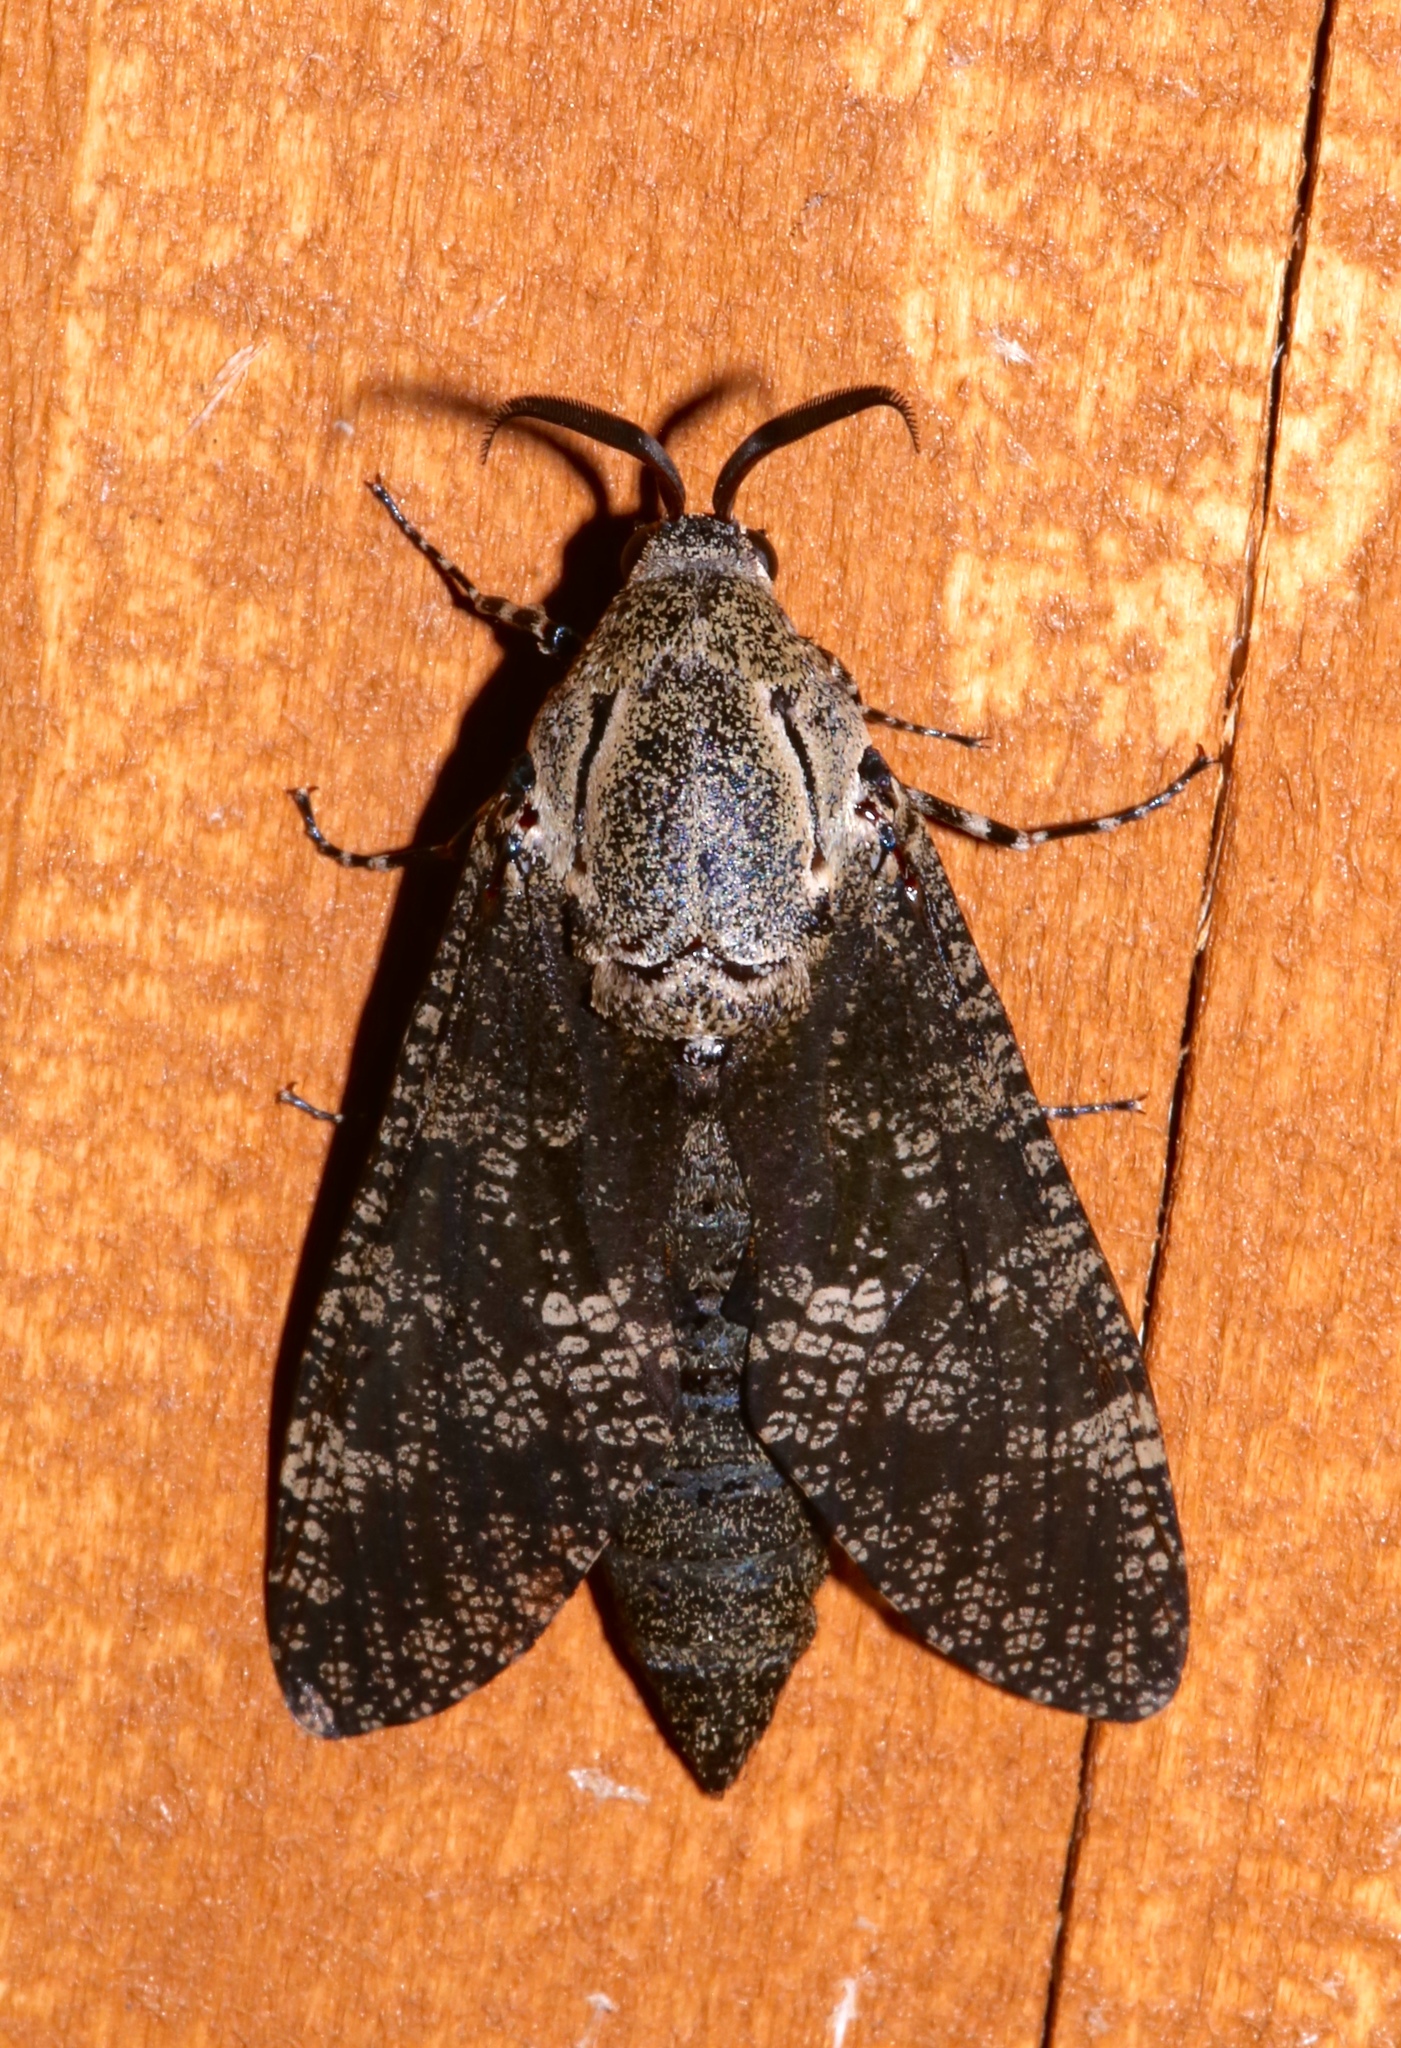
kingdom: Animalia
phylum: Arthropoda
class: Insecta
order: Lepidoptera
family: Cossidae
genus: Prionoxystus
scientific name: Prionoxystus robiniae
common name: Carpenterworm
